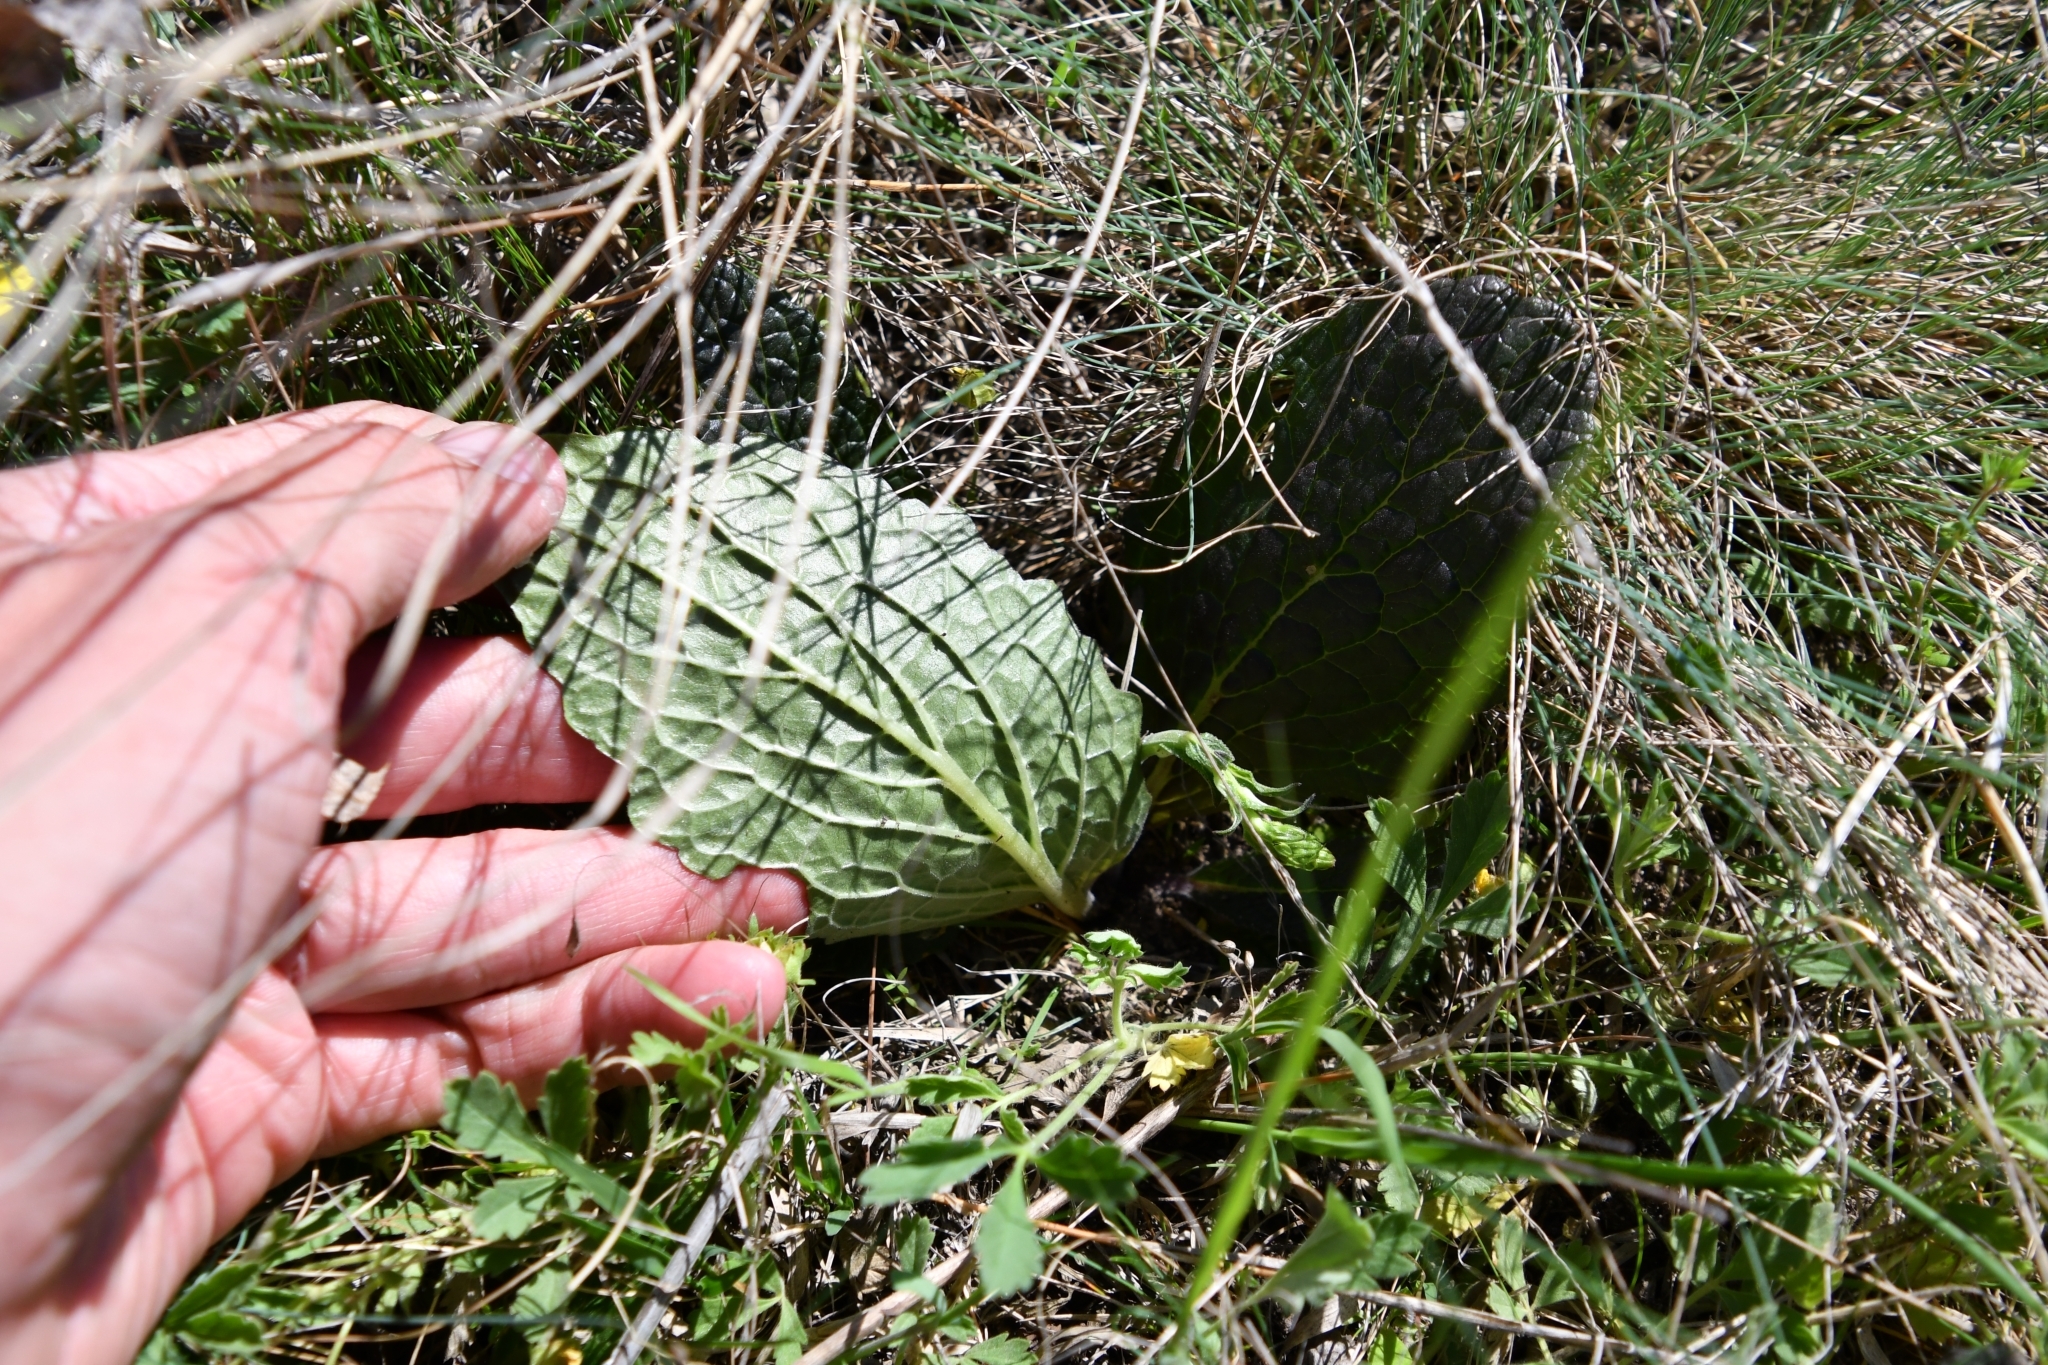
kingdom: Plantae
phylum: Tracheophyta
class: Magnoliopsida
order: Lamiales
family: Scrophulariaceae
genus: Verbascum
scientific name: Verbascum phoeniceum
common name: Purple mullein
